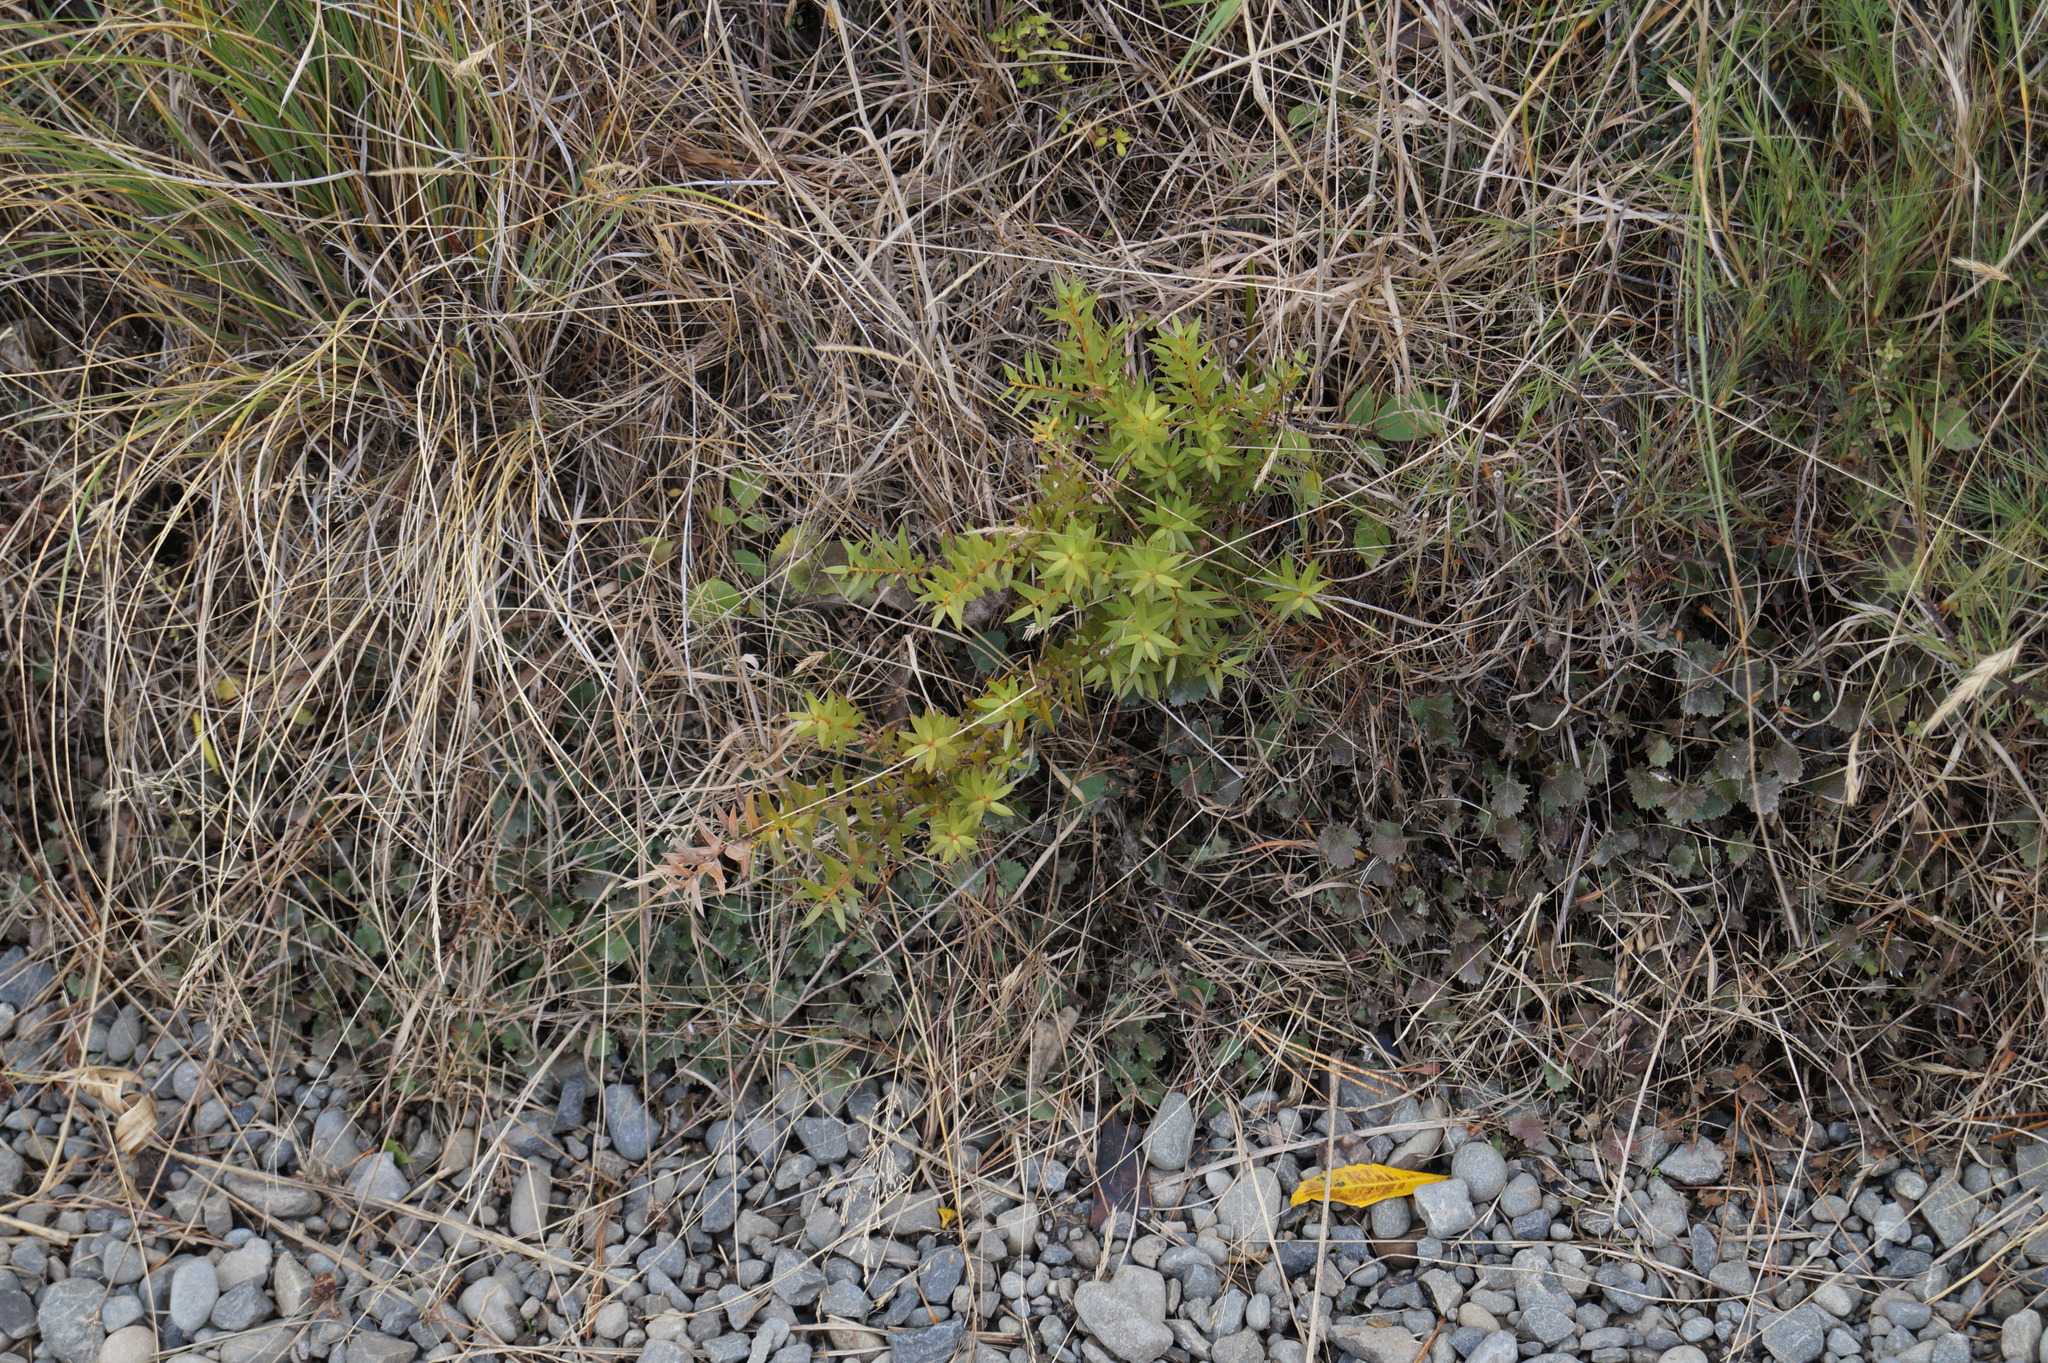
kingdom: Plantae
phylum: Tracheophyta
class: Pinopsida
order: Pinales
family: Podocarpaceae
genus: Podocarpus
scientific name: Podocarpus totara
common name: Totara
